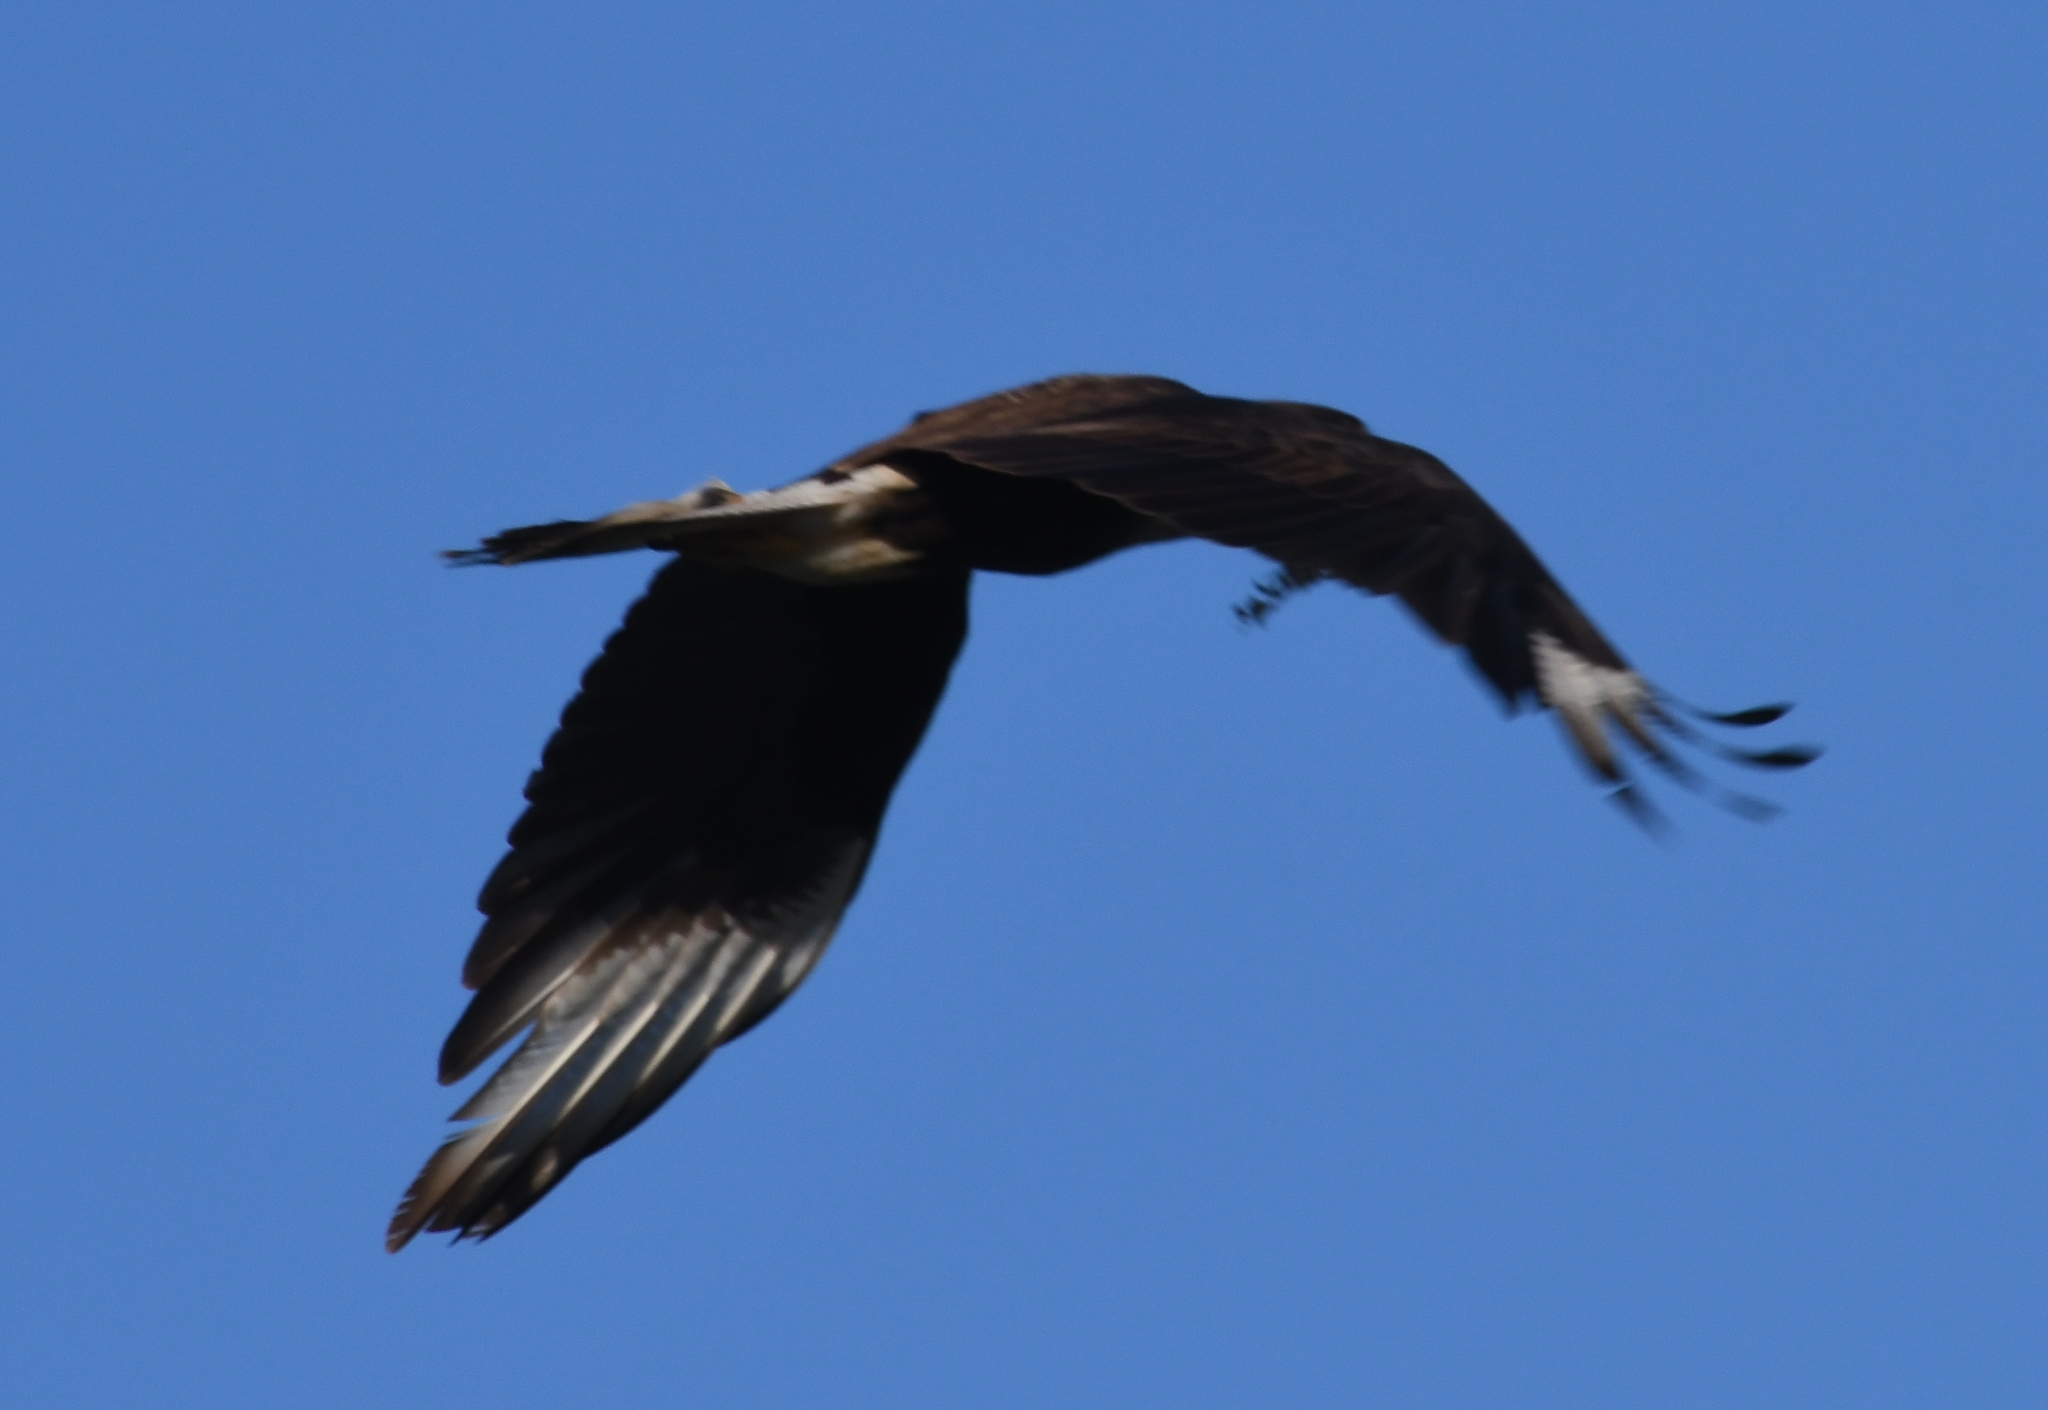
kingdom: Animalia
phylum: Chordata
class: Aves
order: Falconiformes
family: Falconidae
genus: Caracara
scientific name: Caracara plancus
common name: Southern caracara
